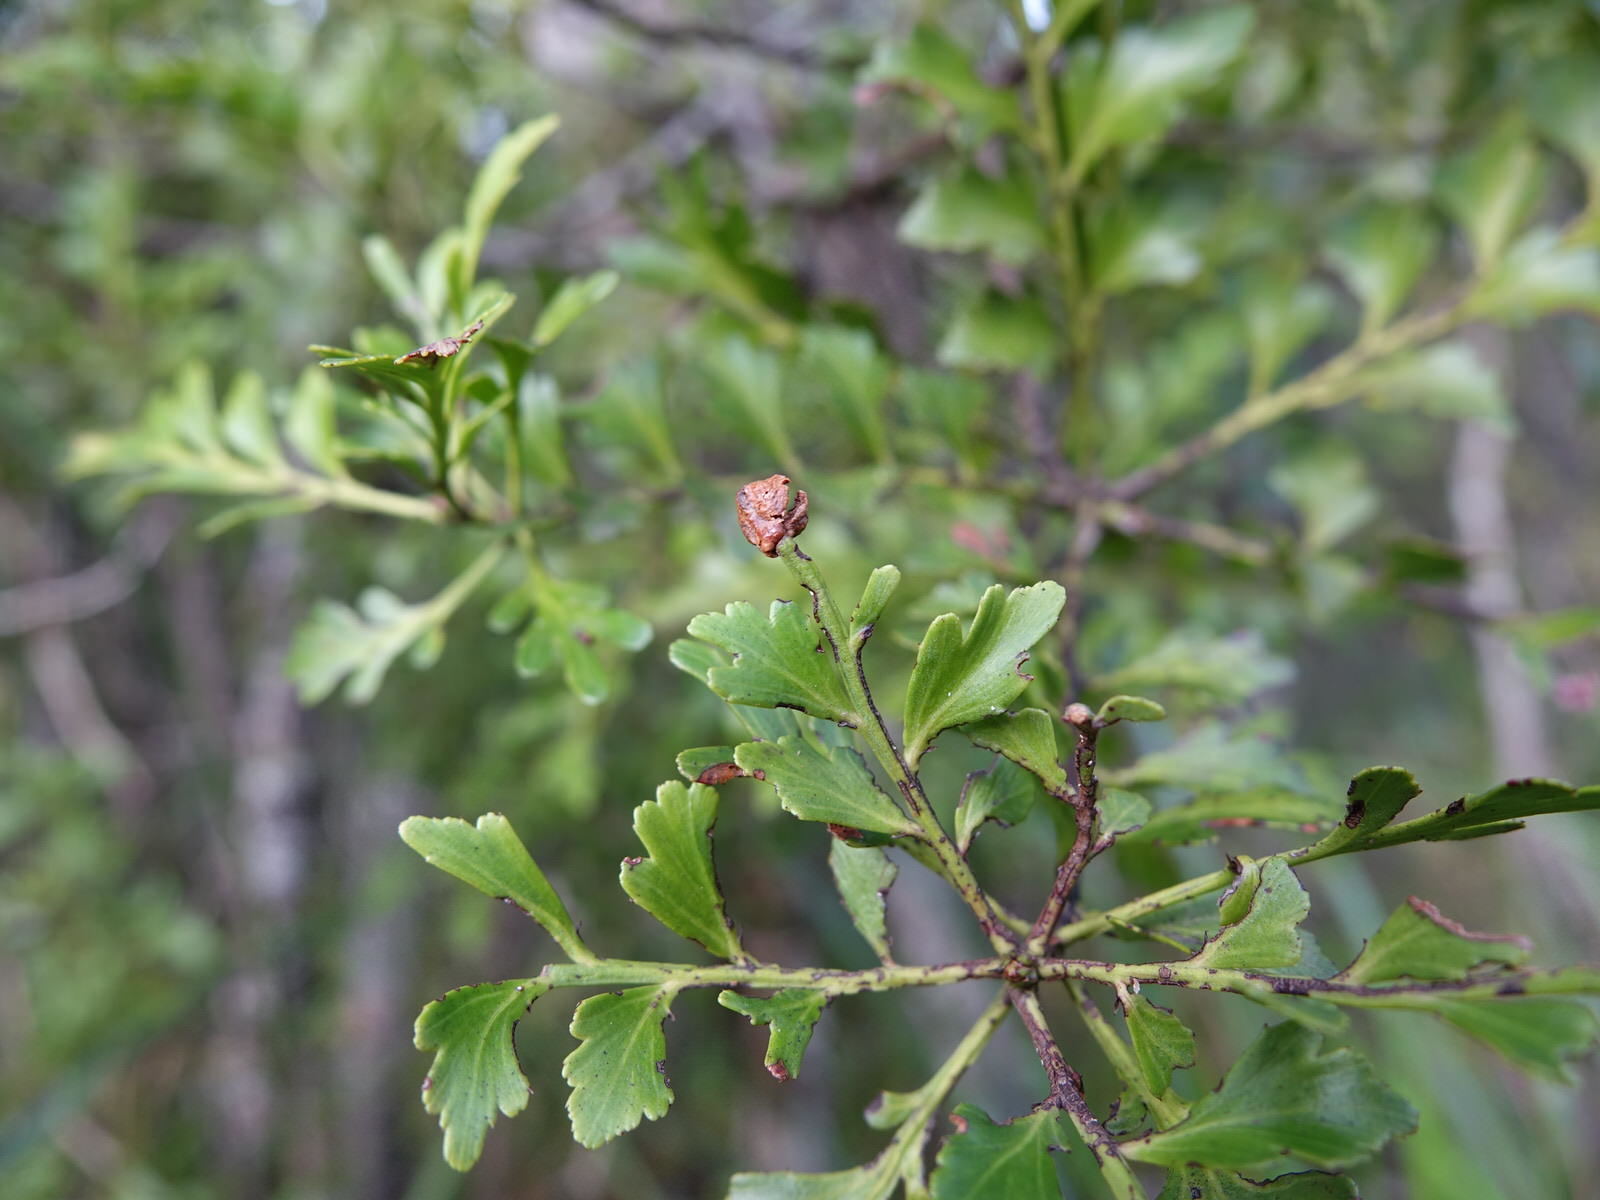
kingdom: Plantae
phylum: Tracheophyta
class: Pinopsida
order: Pinales
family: Phyllocladaceae
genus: Phyllocladus
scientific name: Phyllocladus trichomanoides
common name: Celery pine
